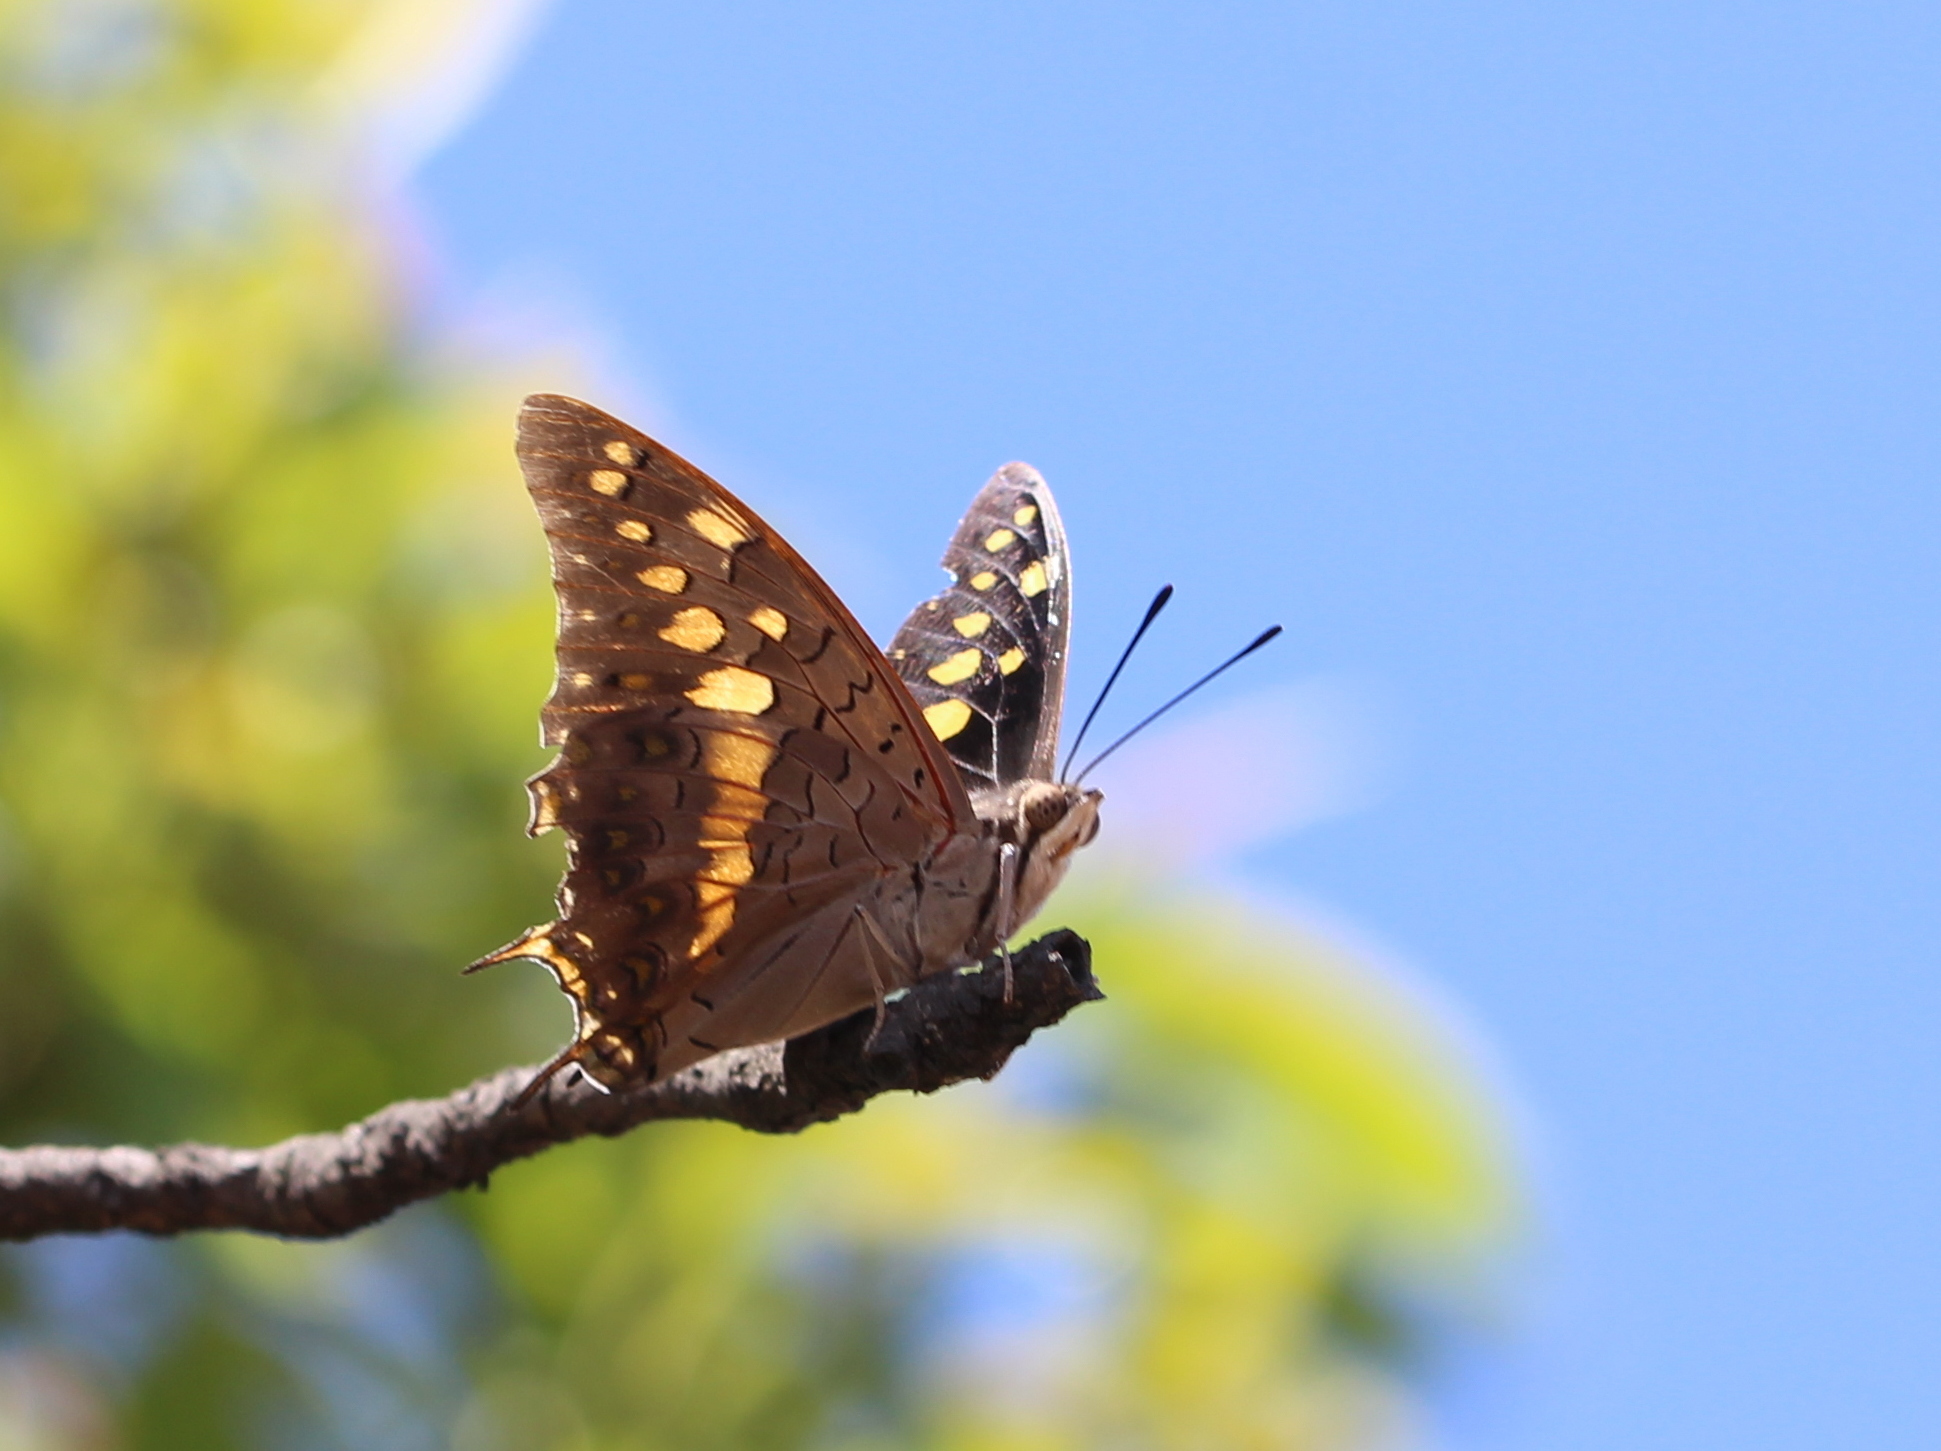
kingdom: Animalia
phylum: Arthropoda
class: Insecta
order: Lepidoptera
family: Nymphalidae
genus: Charaxes
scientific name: Charaxes solon
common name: Black rajah
